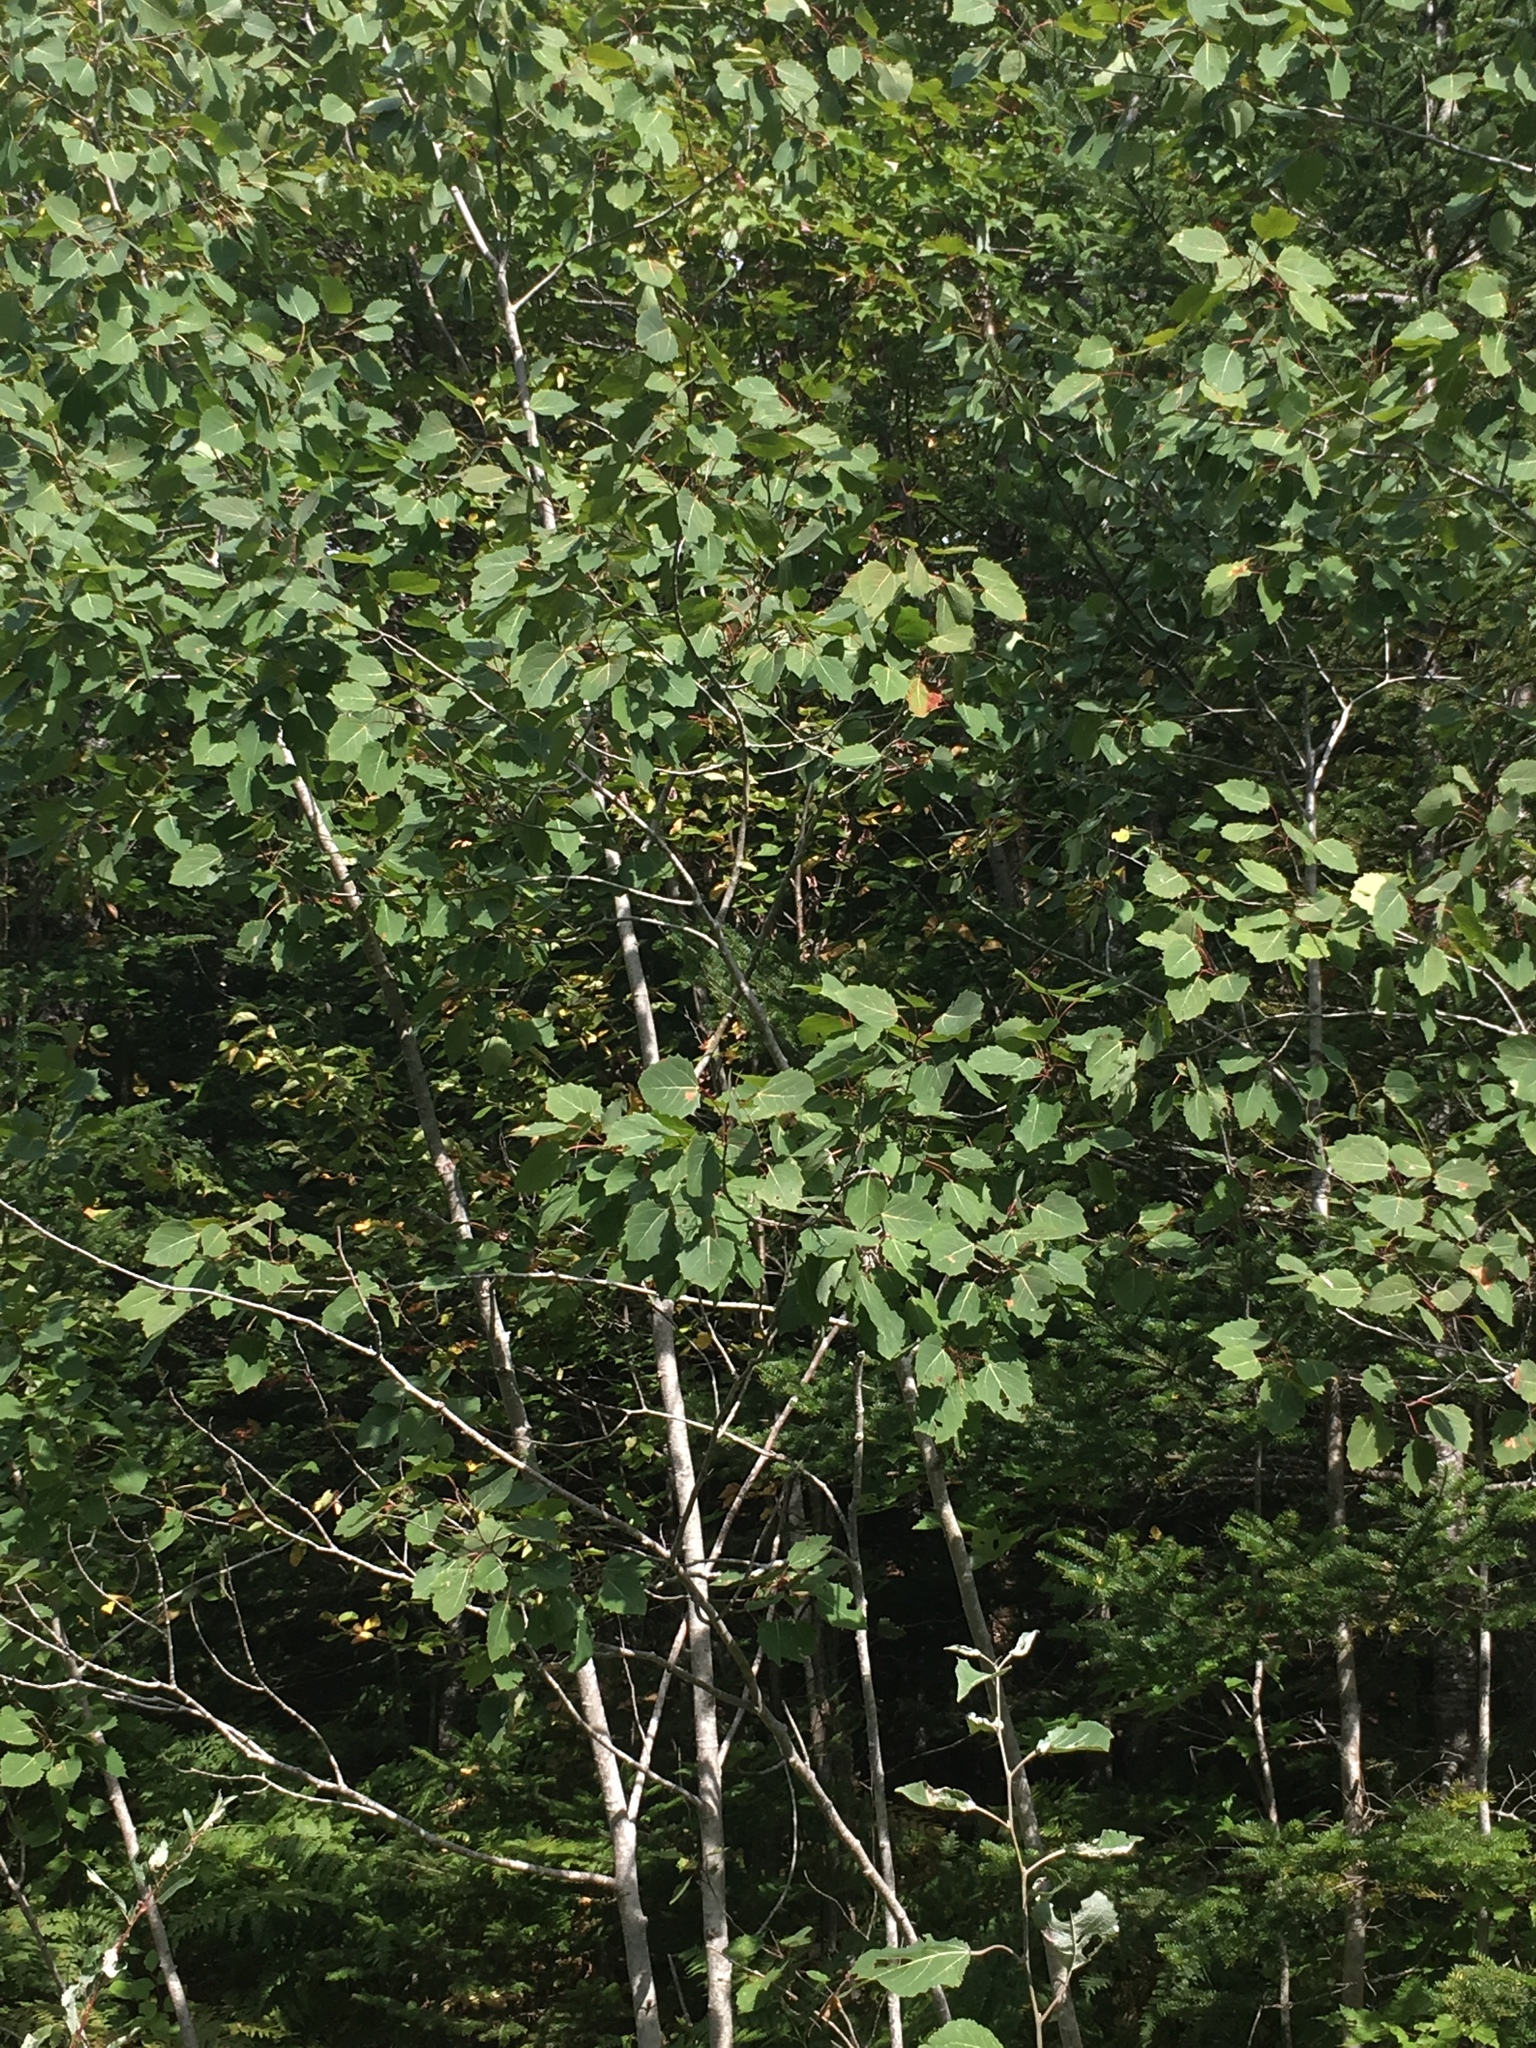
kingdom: Plantae
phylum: Tracheophyta
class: Magnoliopsida
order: Malpighiales
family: Salicaceae
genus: Populus
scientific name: Populus grandidentata
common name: Bigtooth aspen
